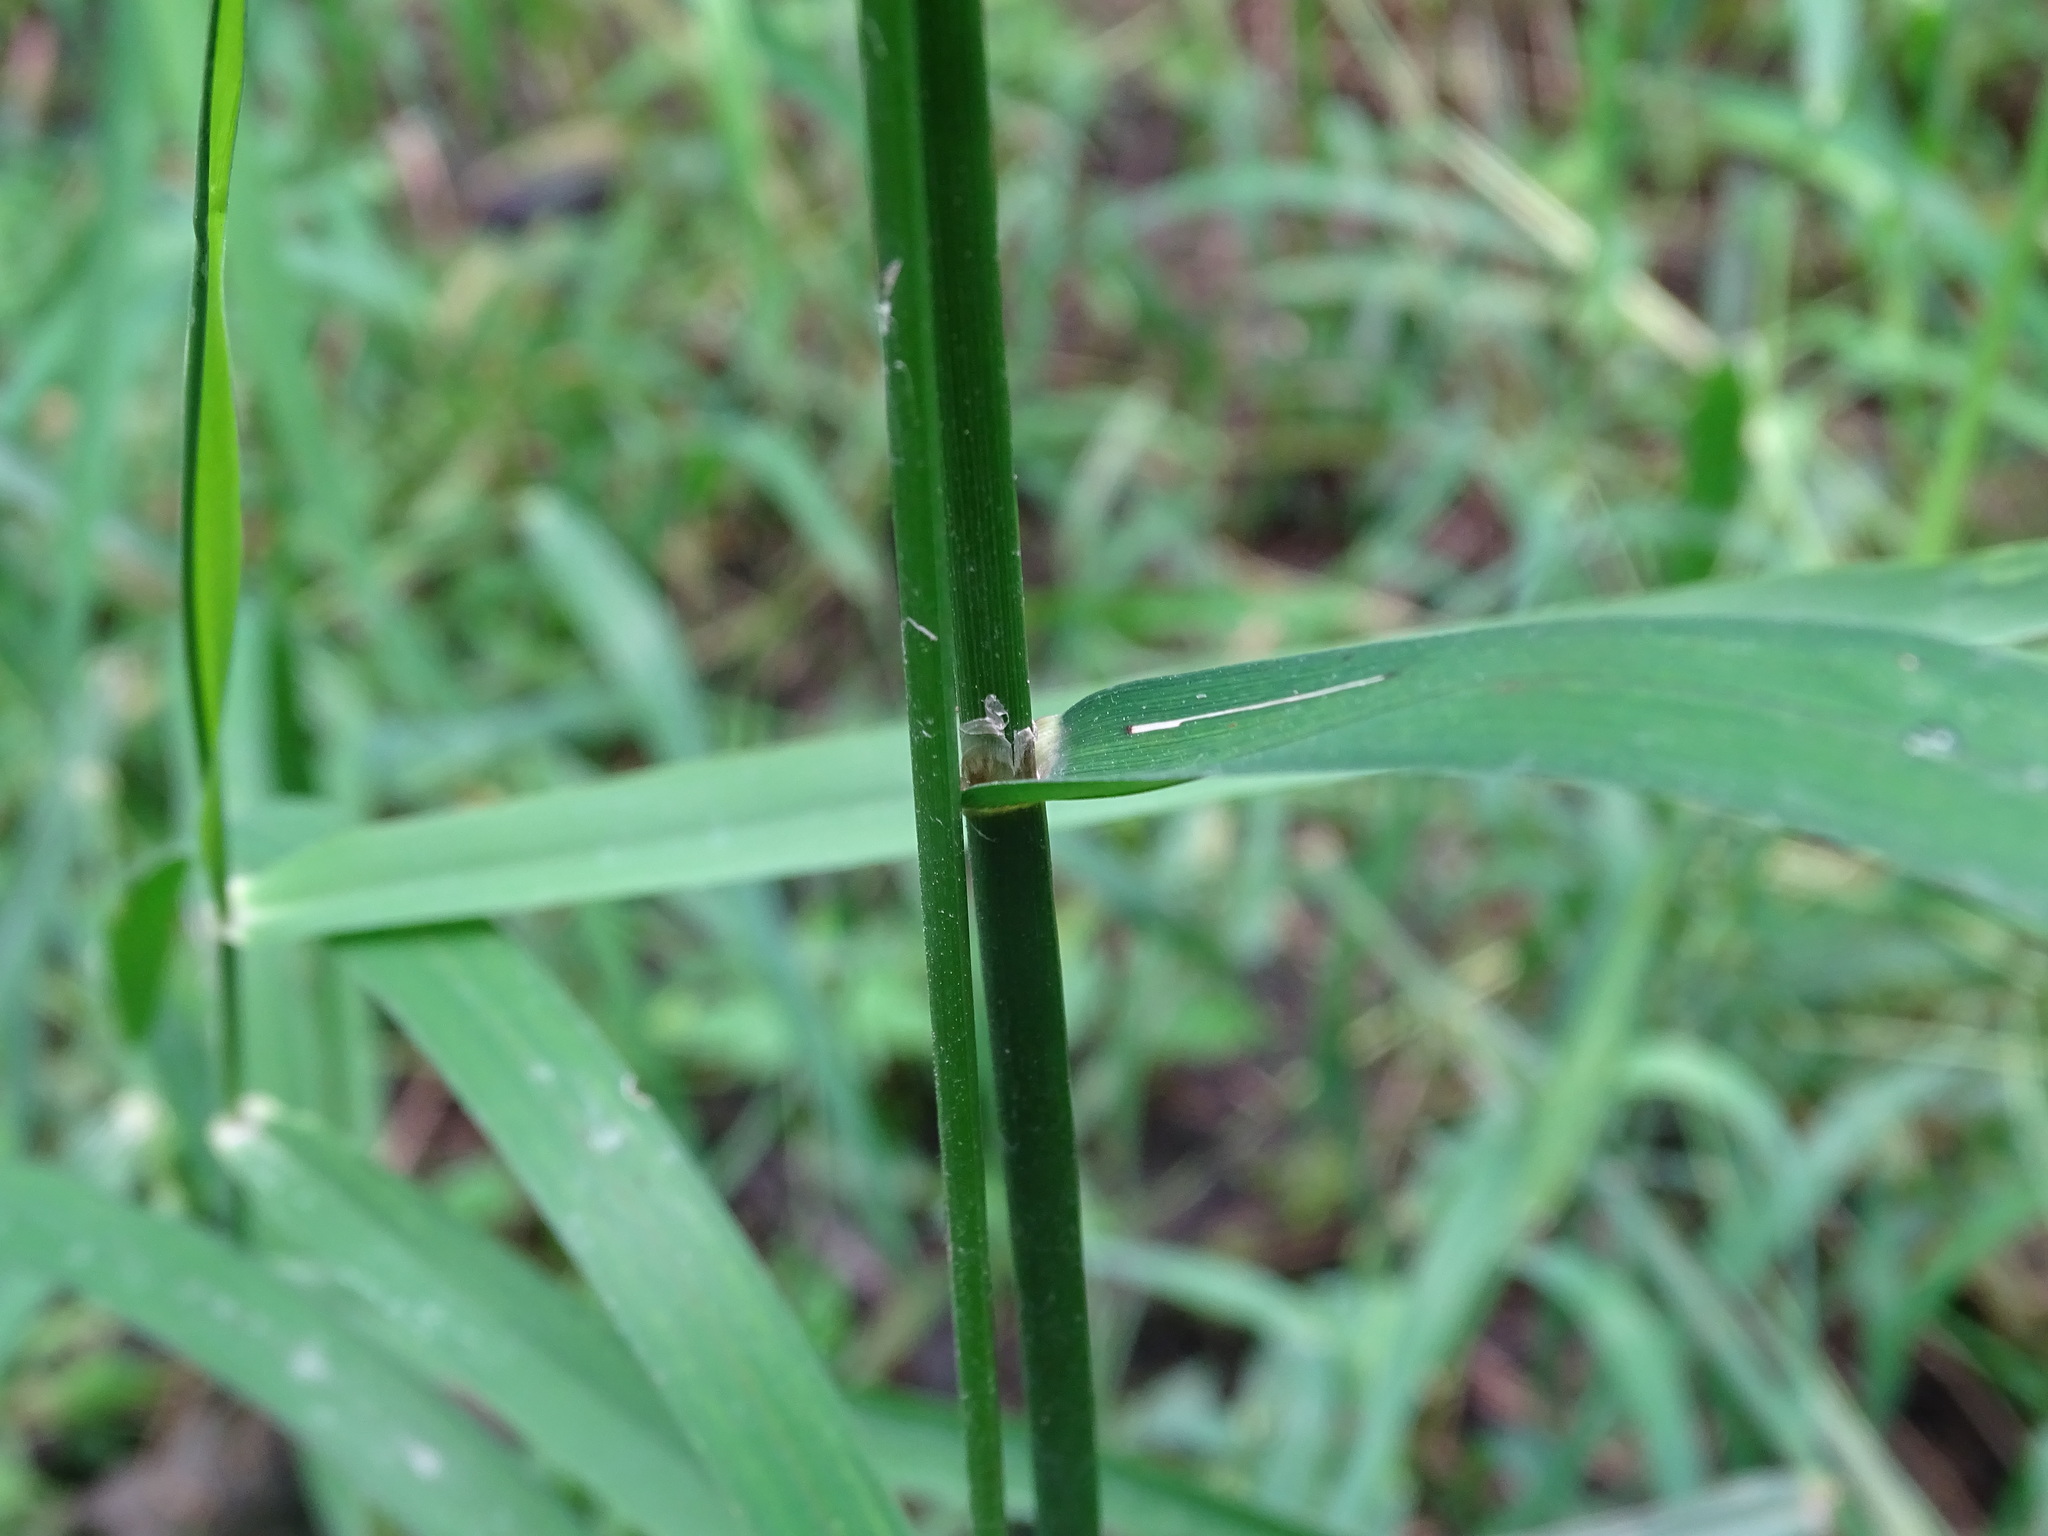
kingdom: Plantae
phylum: Tracheophyta
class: Liliopsida
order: Poales
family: Poaceae
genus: Glyceria
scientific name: Glyceria septentrionalis
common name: Eastern mannagrass
